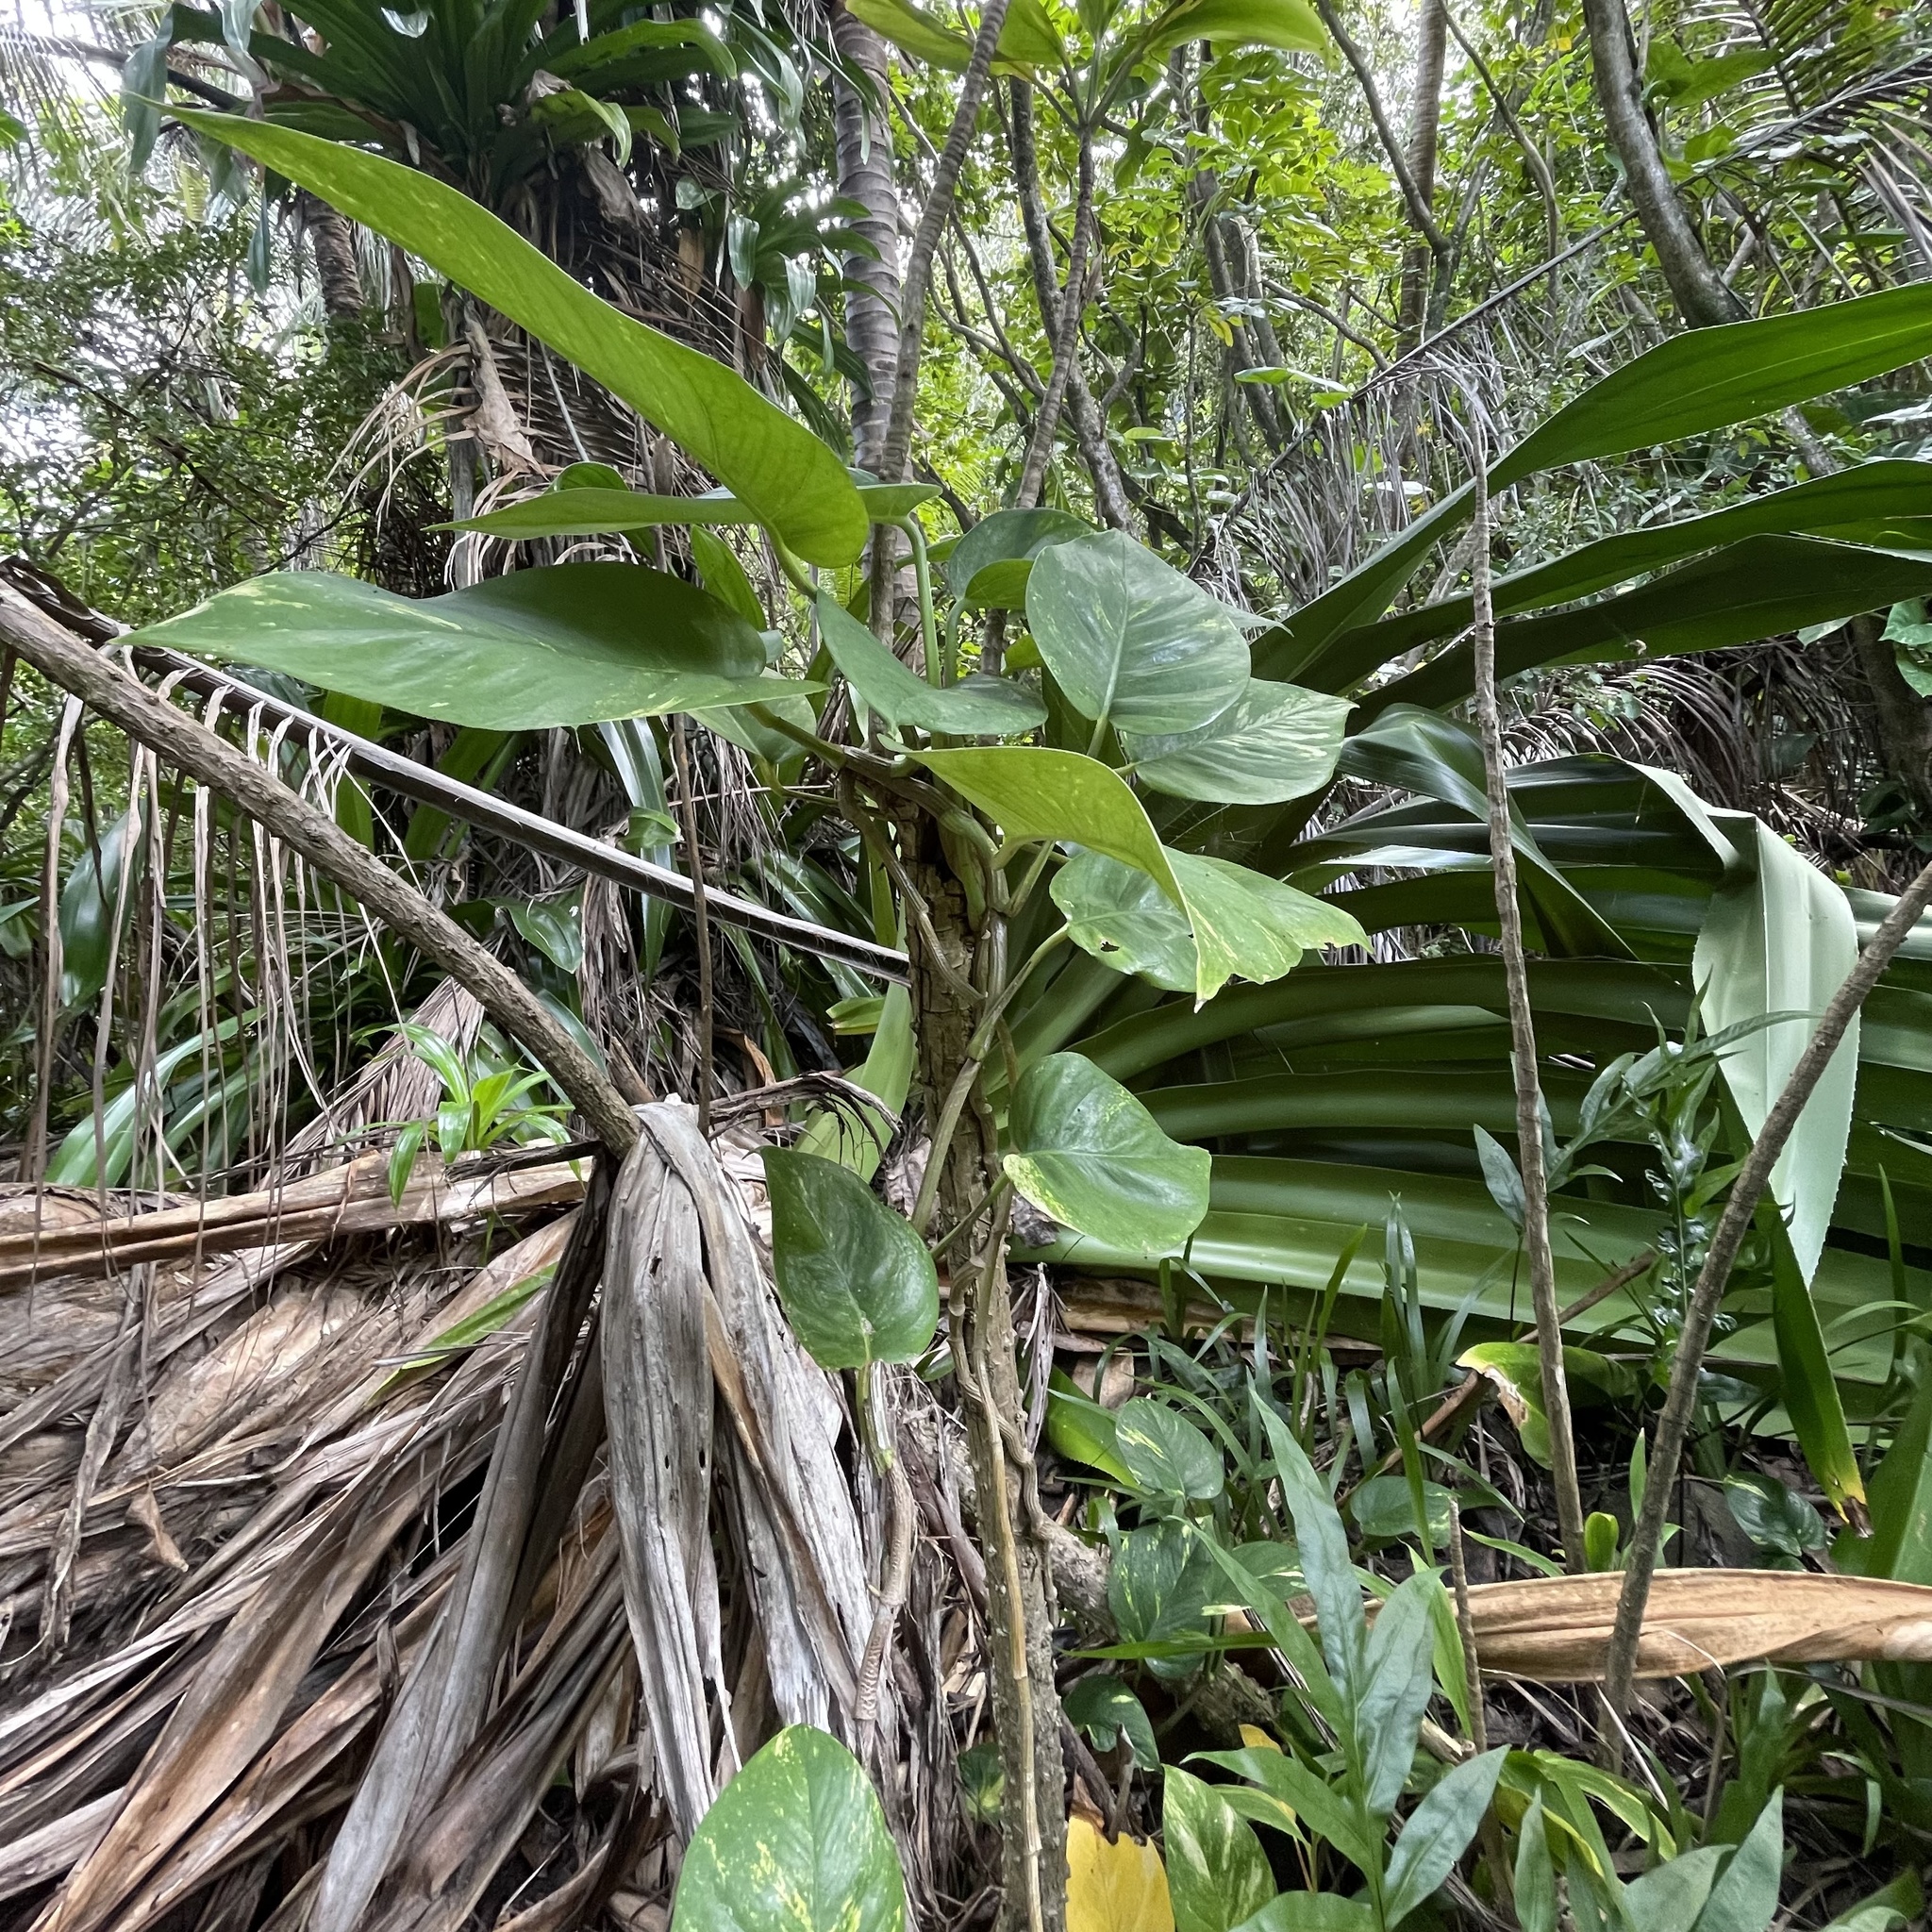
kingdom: Plantae
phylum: Tracheophyta
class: Liliopsida
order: Alismatales
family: Araceae
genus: Epipremnum
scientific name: Epipremnum aureum
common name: Golden hunter's-robe
